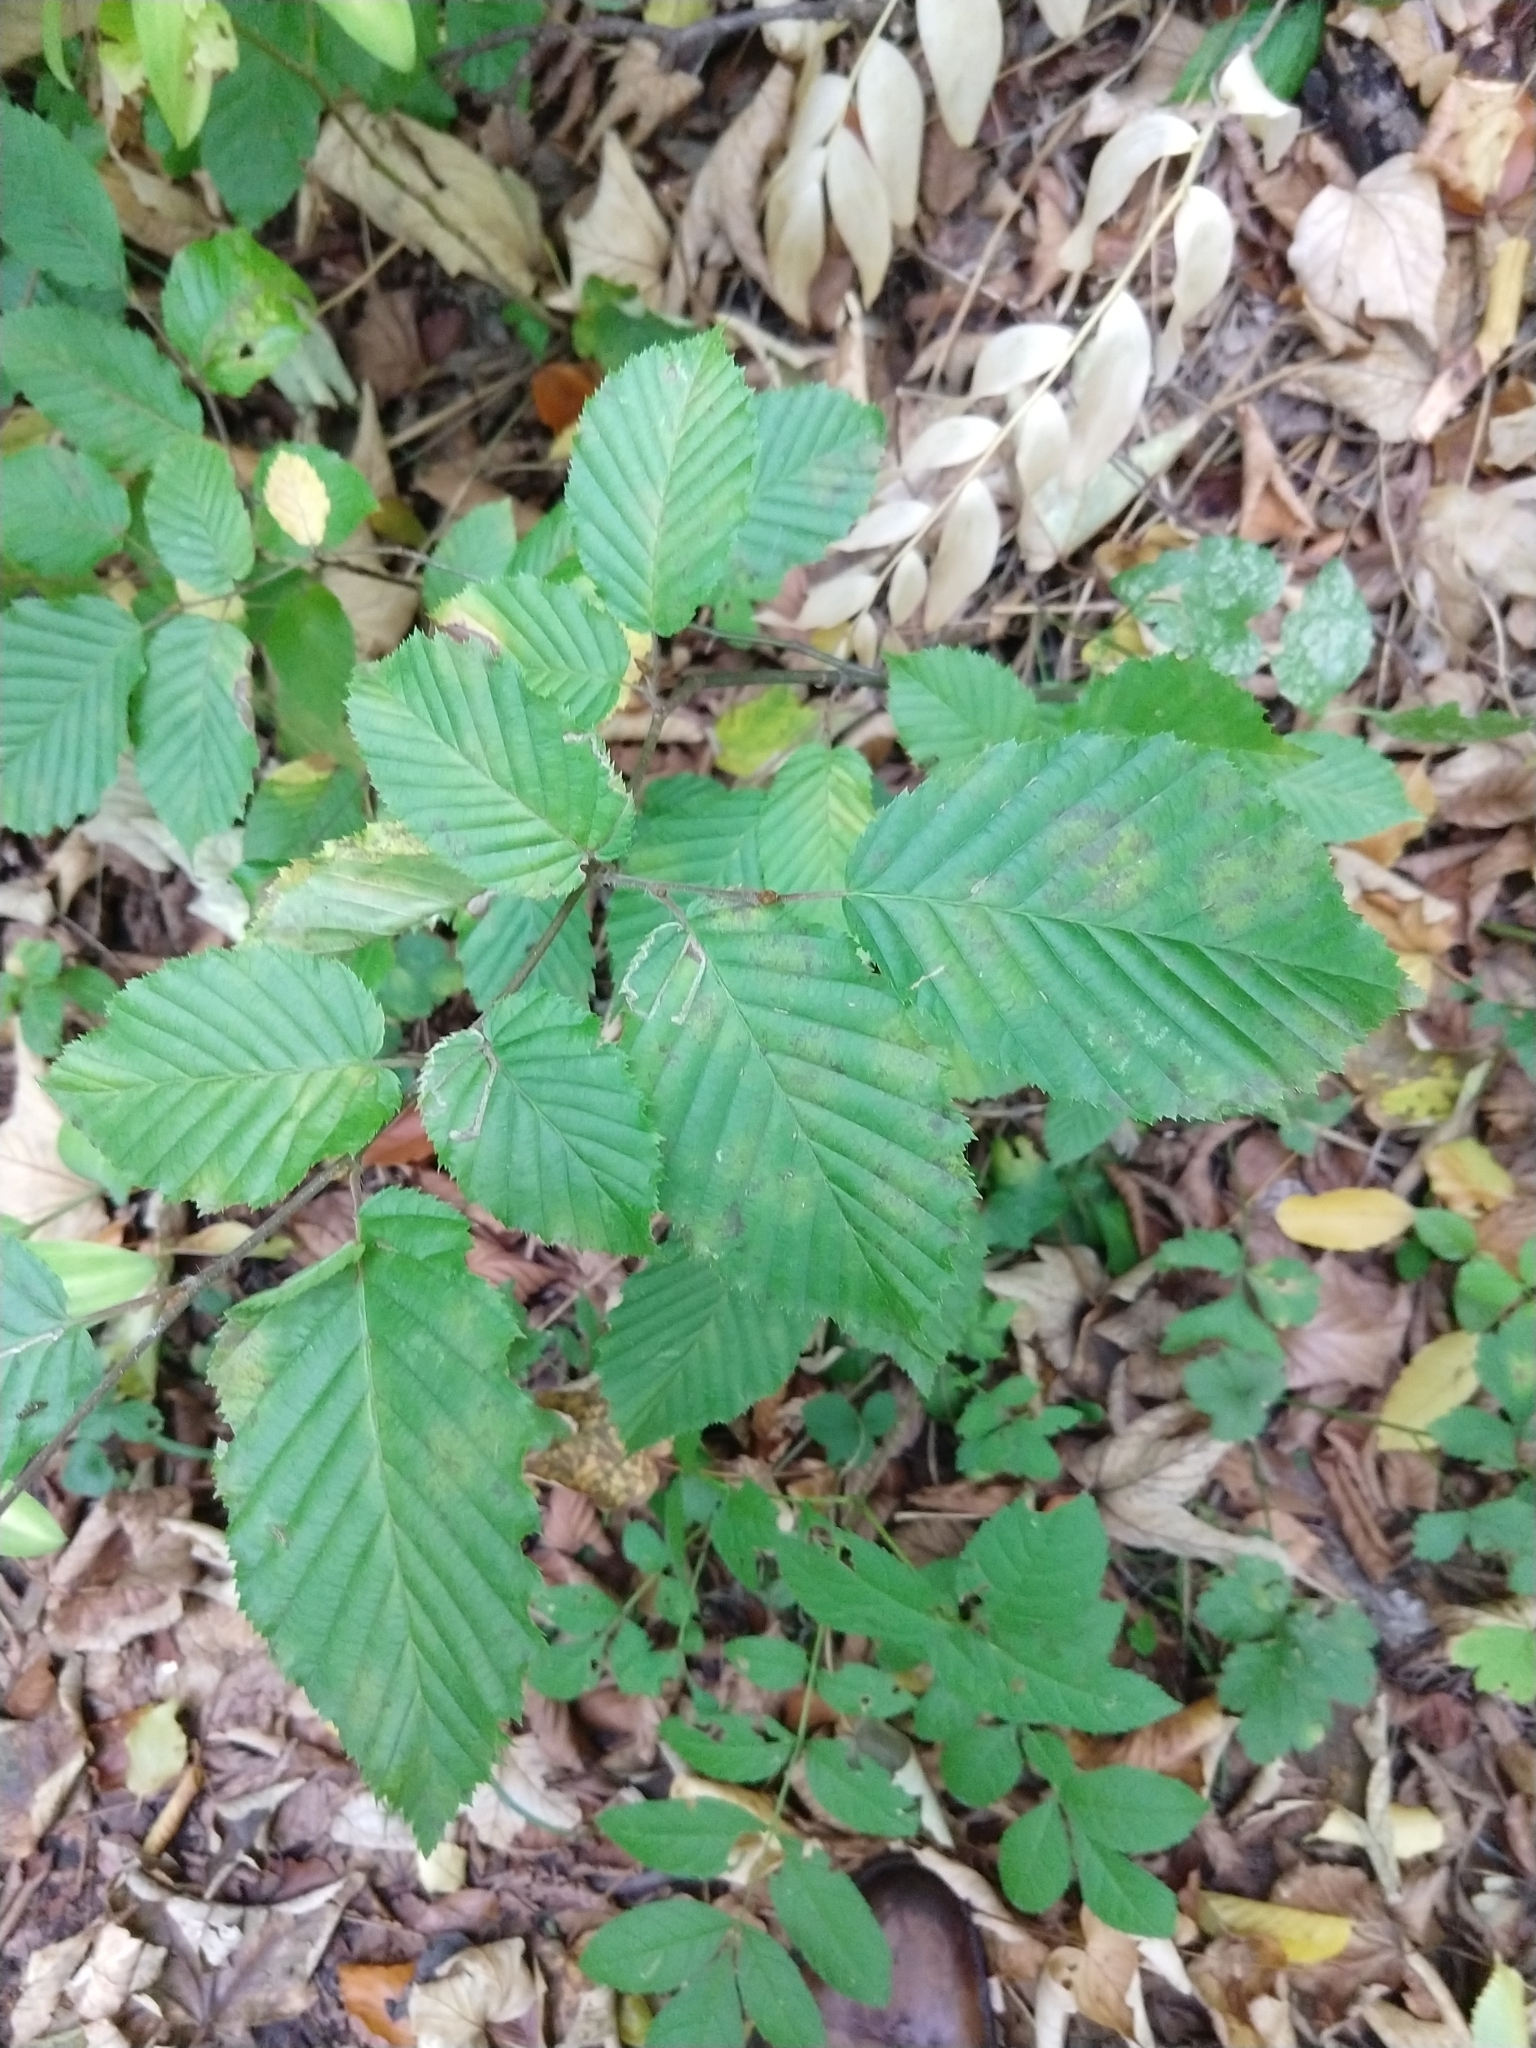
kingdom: Plantae
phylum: Tracheophyta
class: Magnoliopsida
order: Fagales
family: Betulaceae
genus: Carpinus
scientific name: Carpinus betulus
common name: Hornbeam
